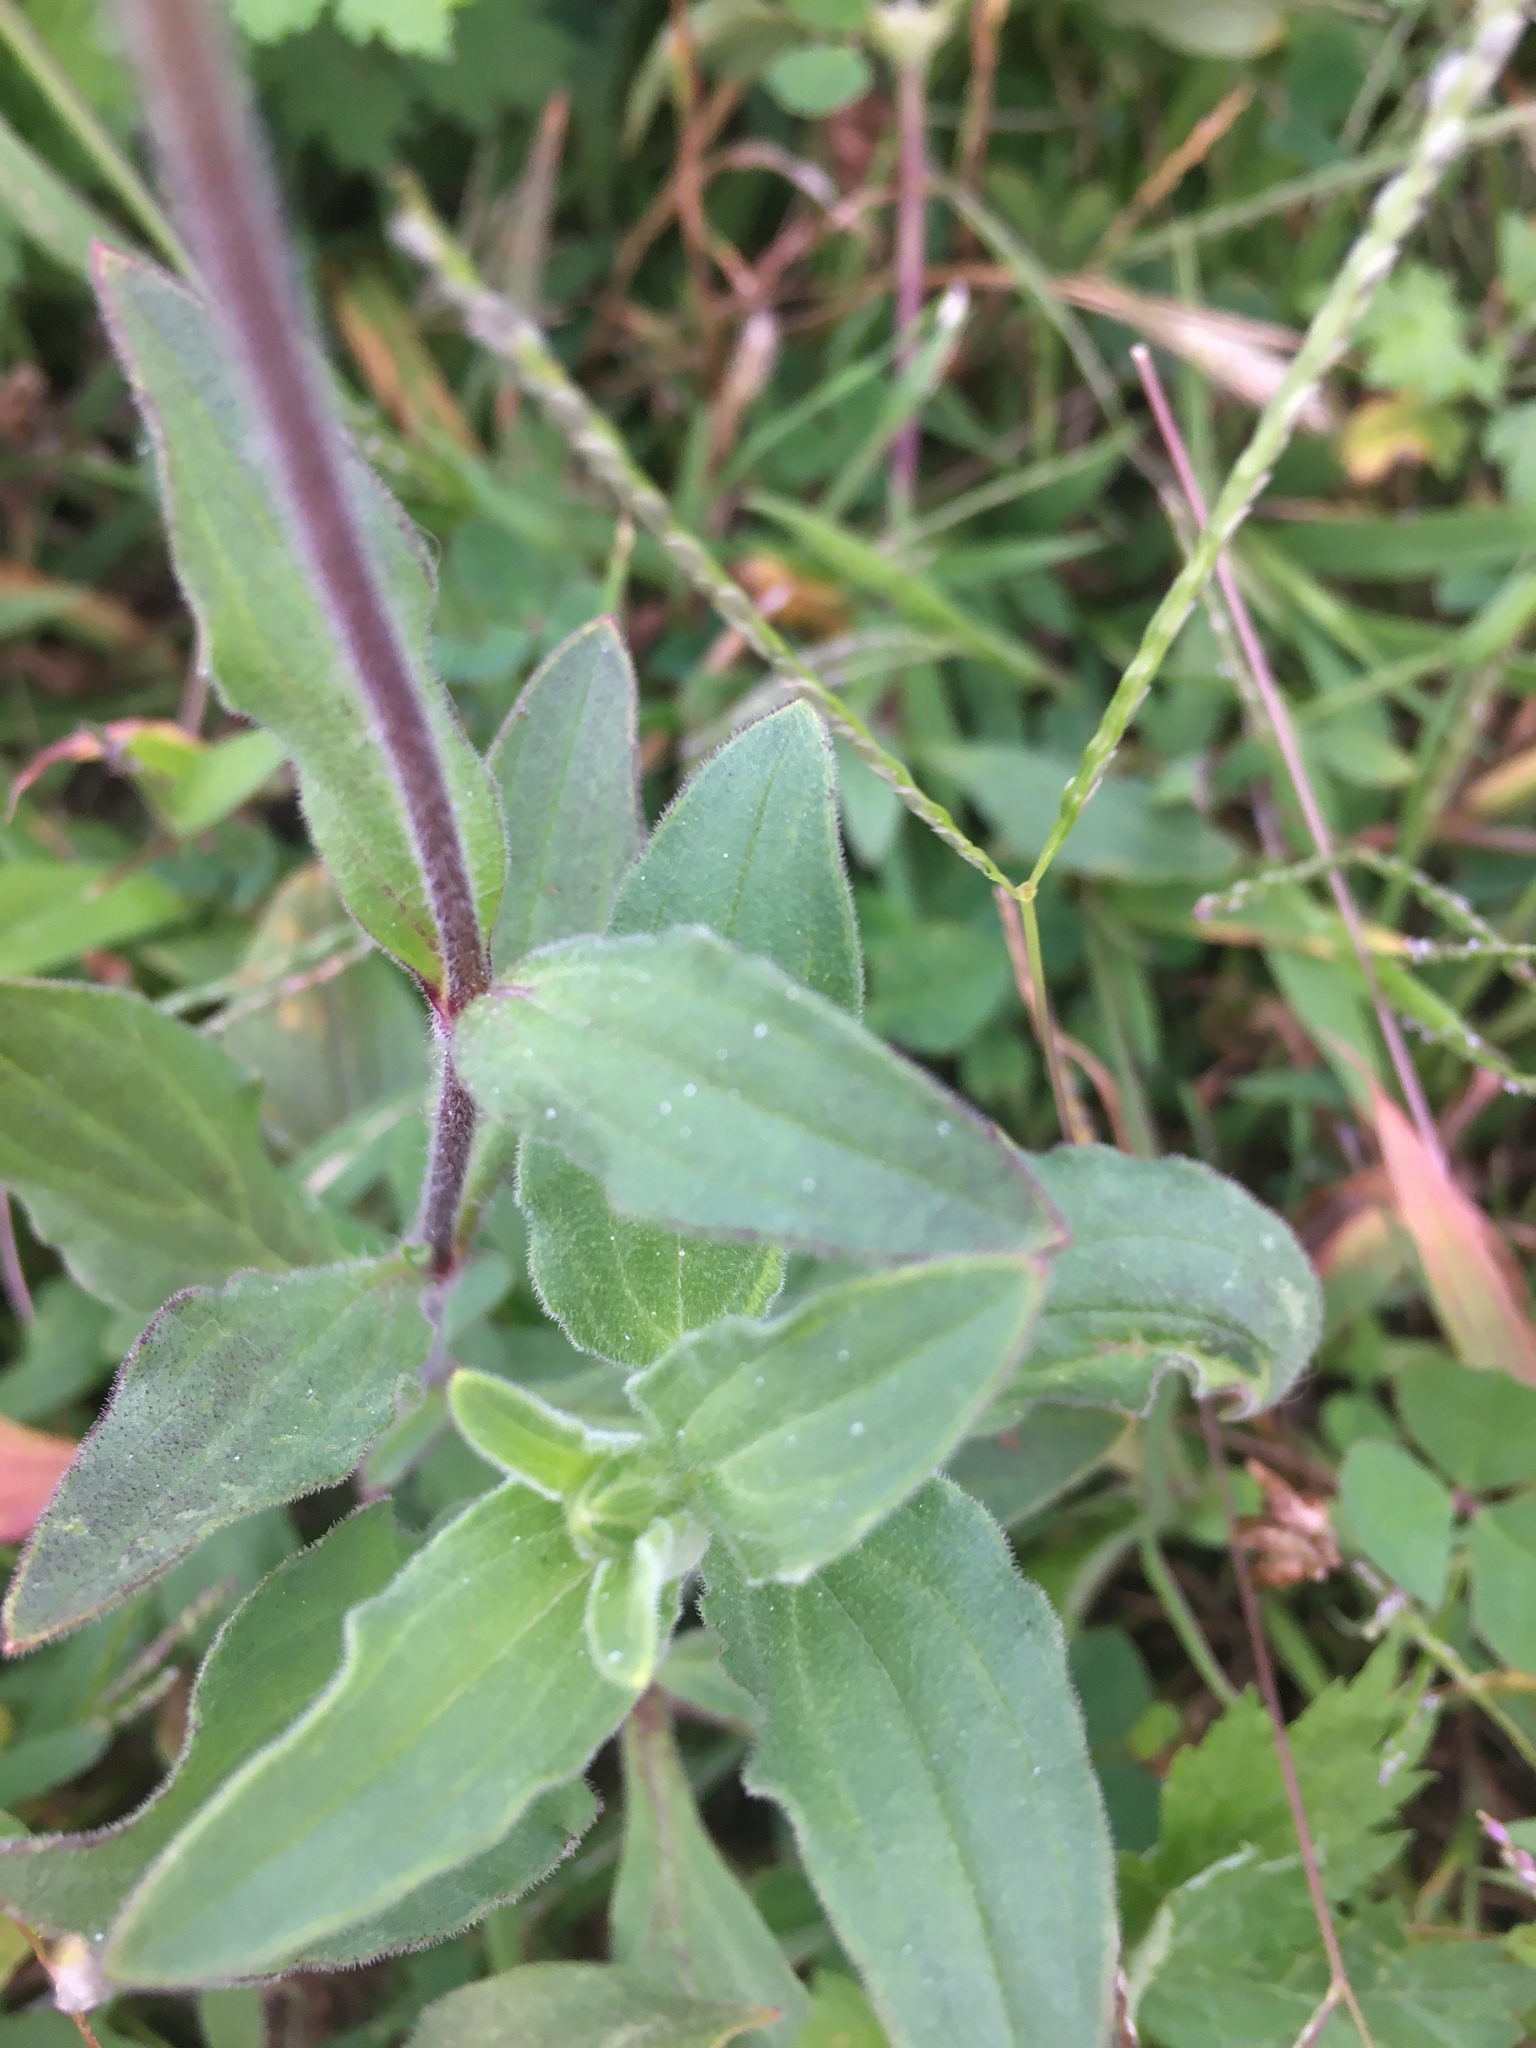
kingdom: Plantae
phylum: Tracheophyta
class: Magnoliopsida
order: Caryophyllales
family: Caryophyllaceae
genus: Silene
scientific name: Silene latifolia
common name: White campion
